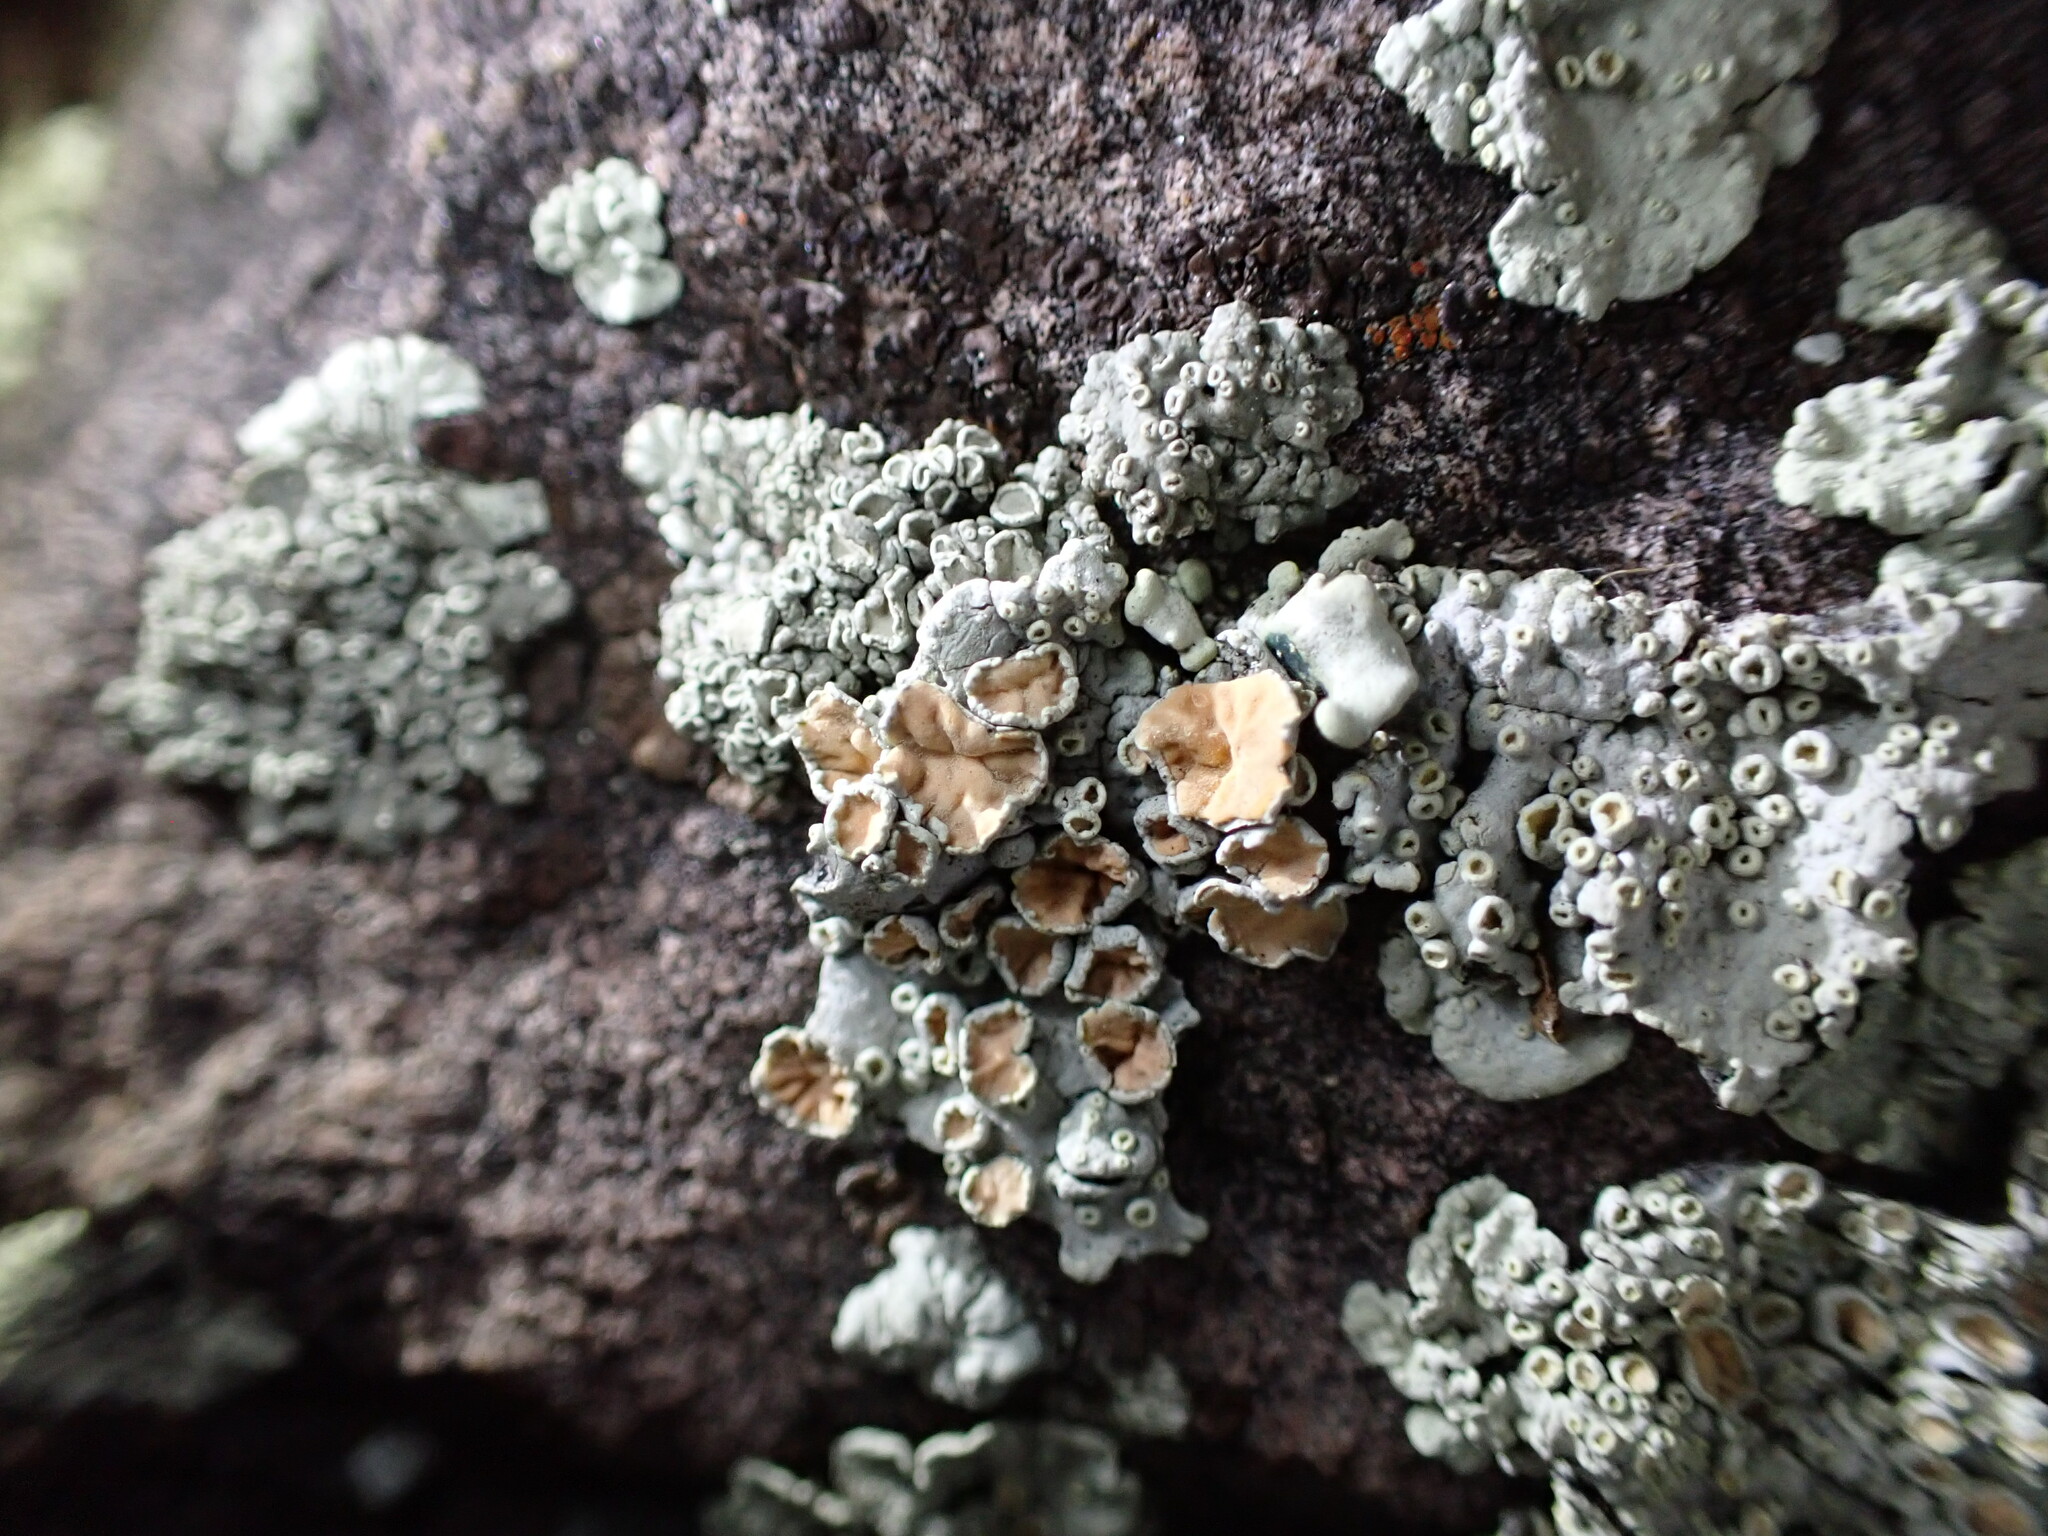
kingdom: Fungi
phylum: Ascomycota
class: Lecanoromycetes
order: Lecanorales
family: Lecanoraceae
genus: Omphalodina
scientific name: Omphalodina chrysoleuca
